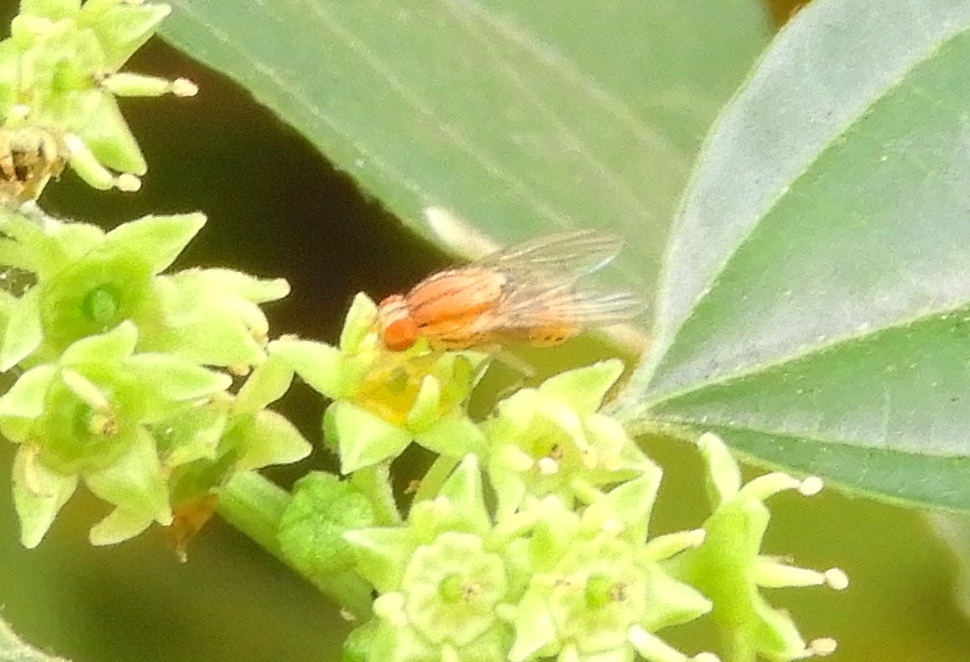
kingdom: Animalia
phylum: Arthropoda
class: Insecta
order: Diptera
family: Lauxaniidae
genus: Poecilominettia
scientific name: Poecilominettia picticornis
